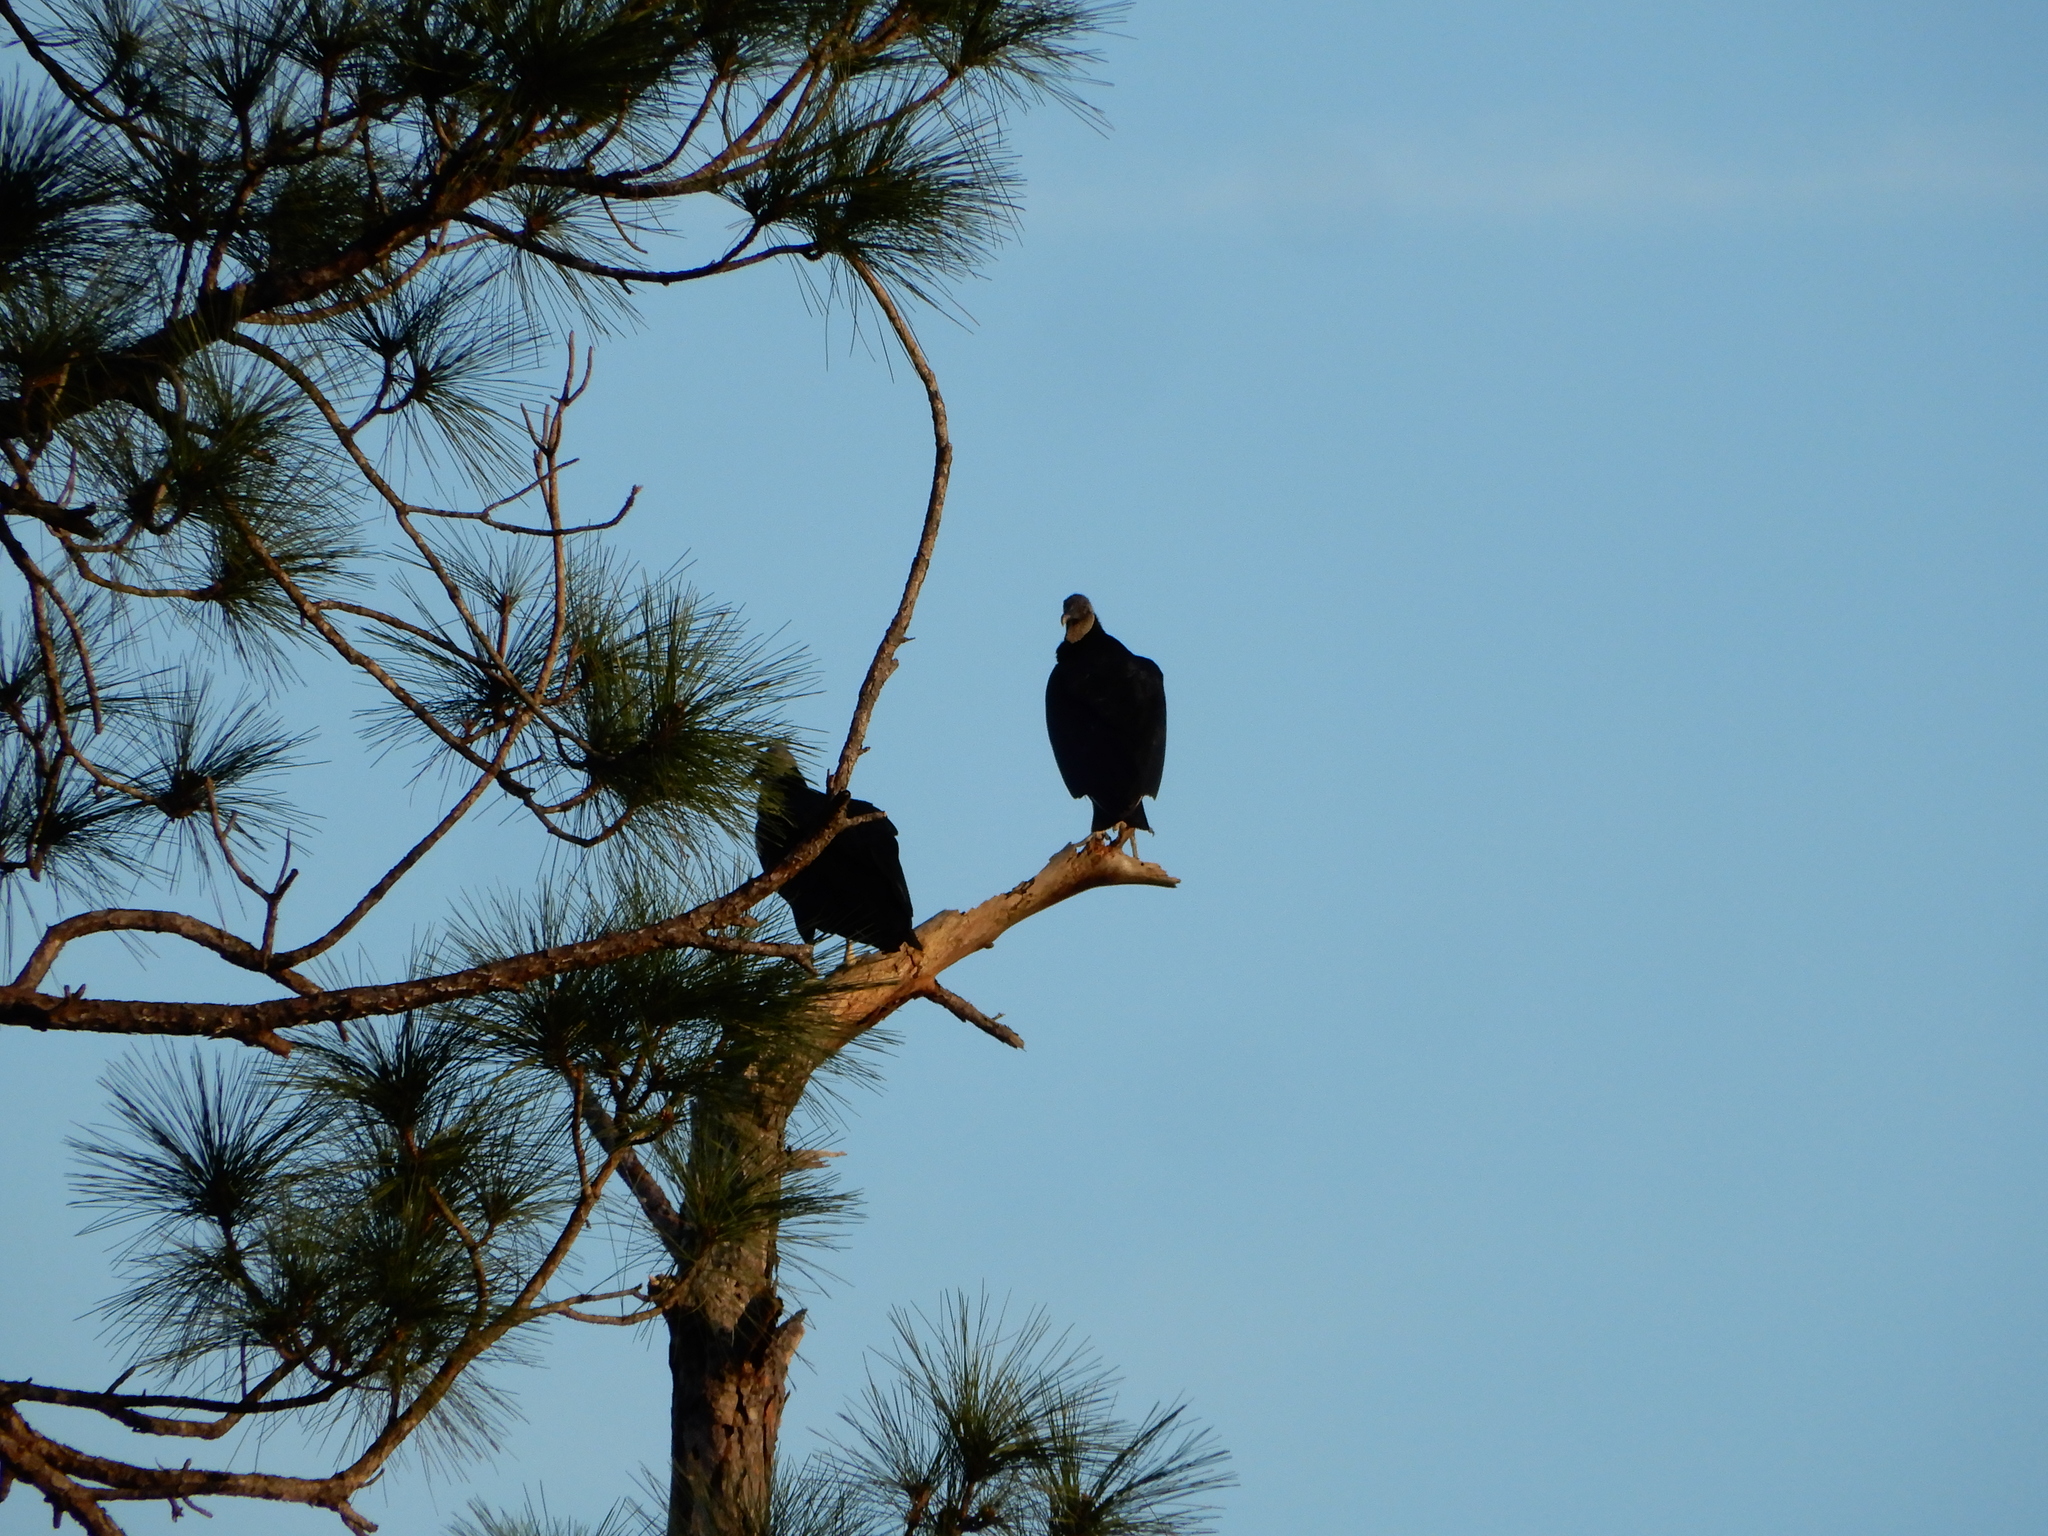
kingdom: Animalia
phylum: Chordata
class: Aves
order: Accipitriformes
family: Cathartidae
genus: Coragyps
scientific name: Coragyps atratus
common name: Black vulture
